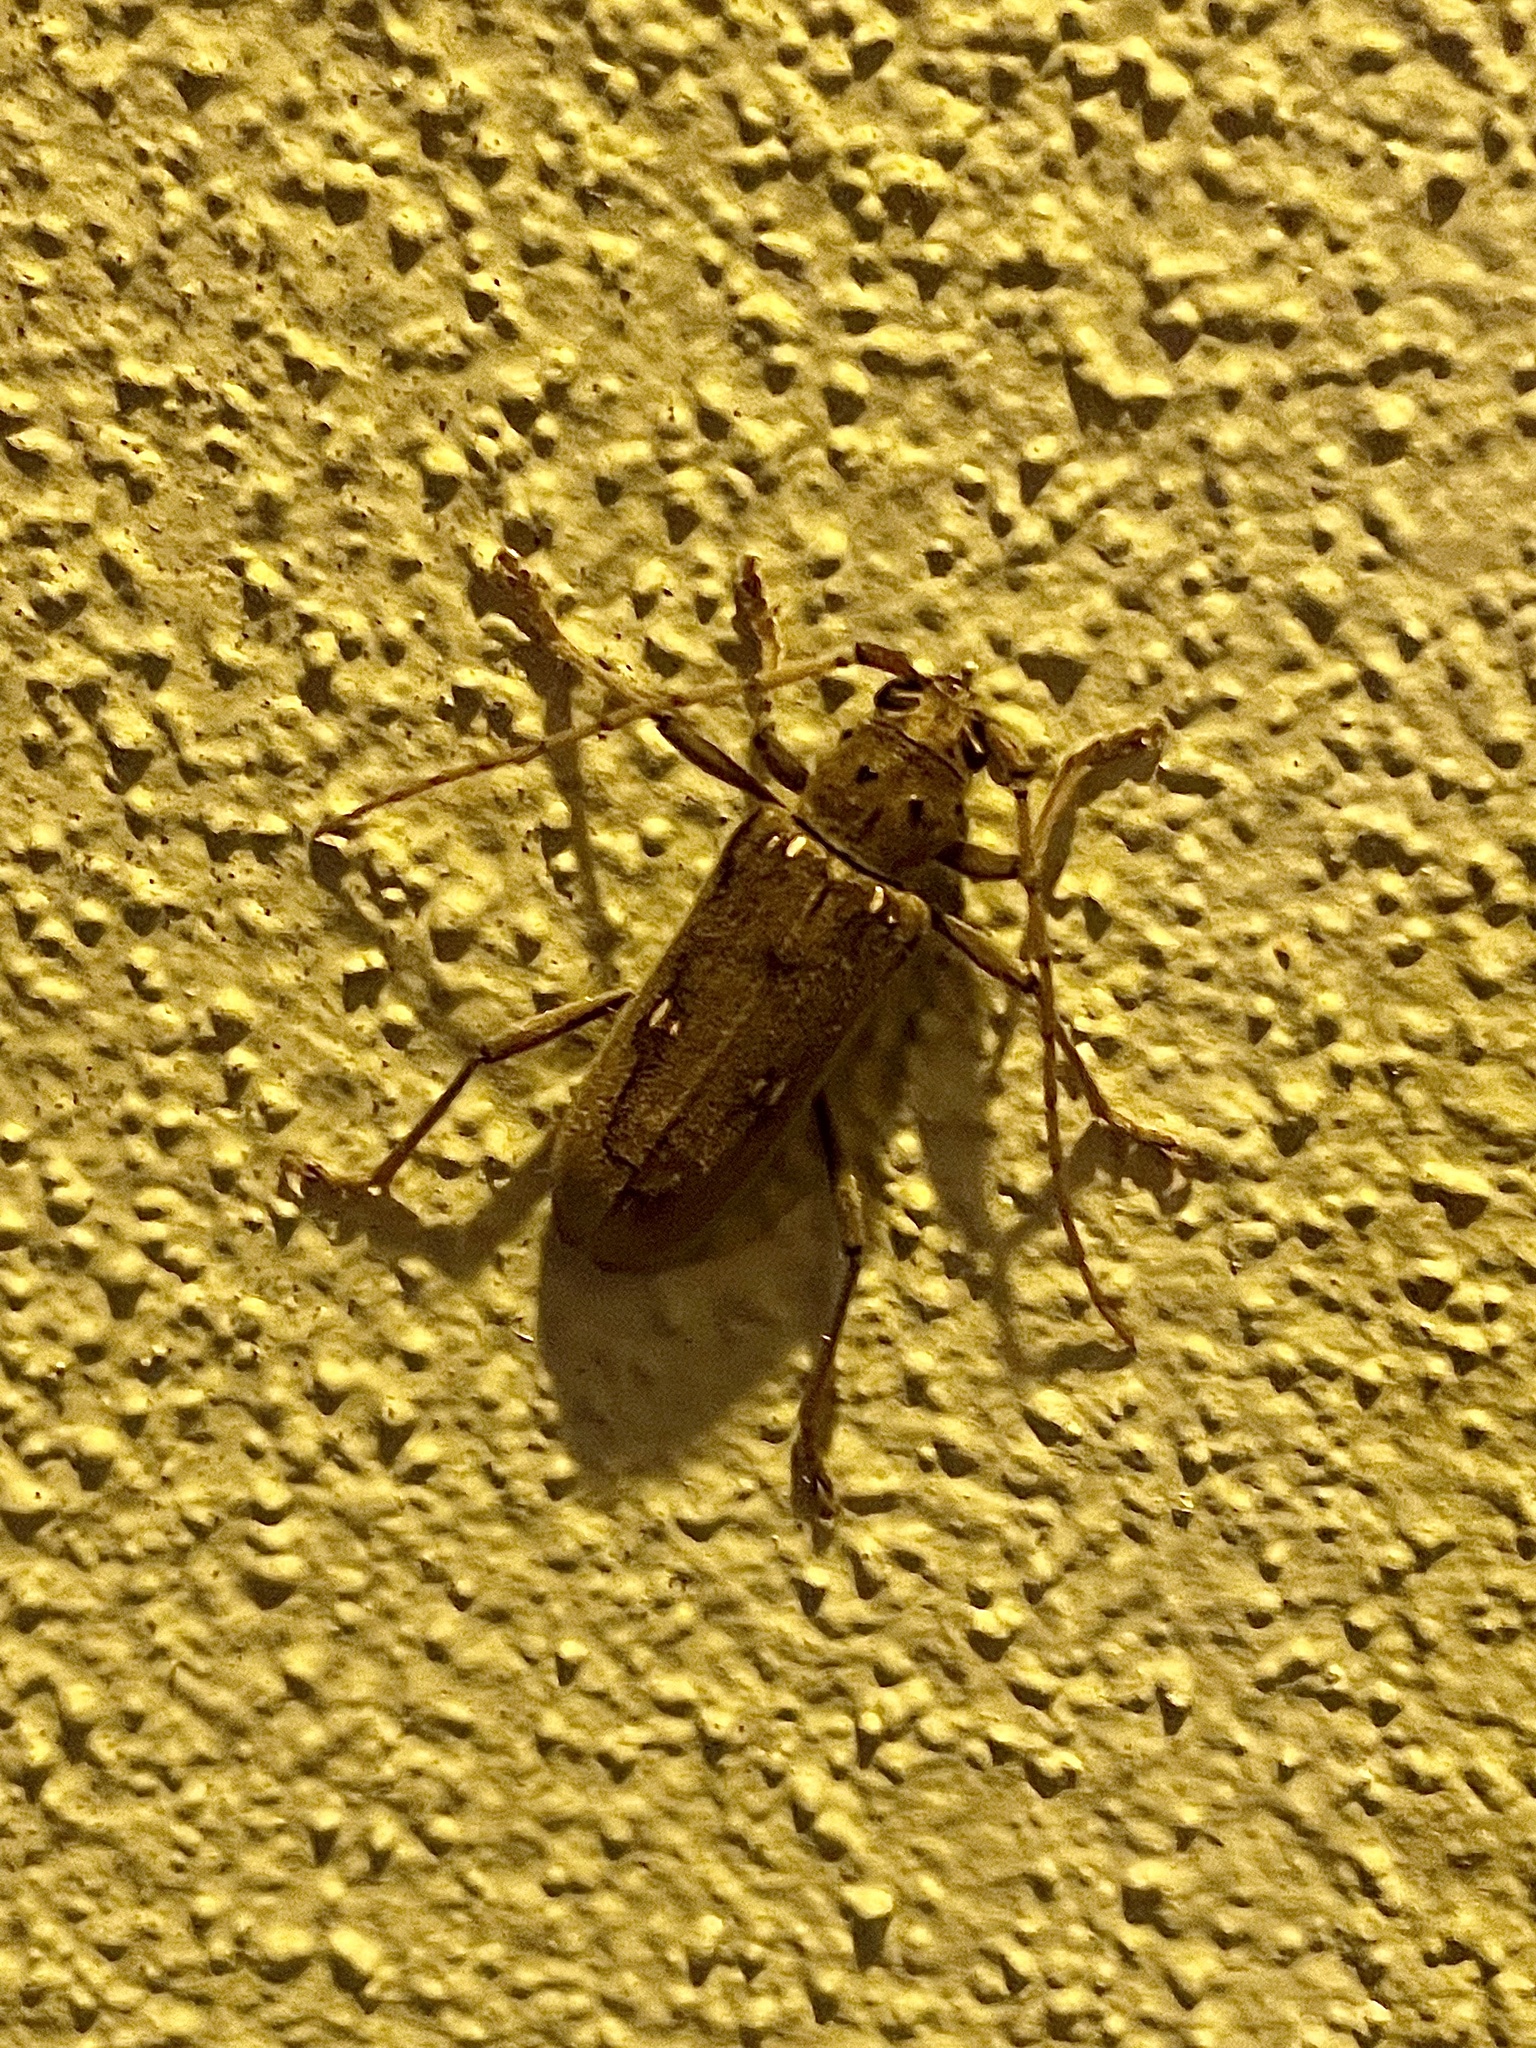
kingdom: Animalia
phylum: Arthropoda
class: Insecta
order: Coleoptera
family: Cerambycidae
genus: Eburia
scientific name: Eburia mutica
